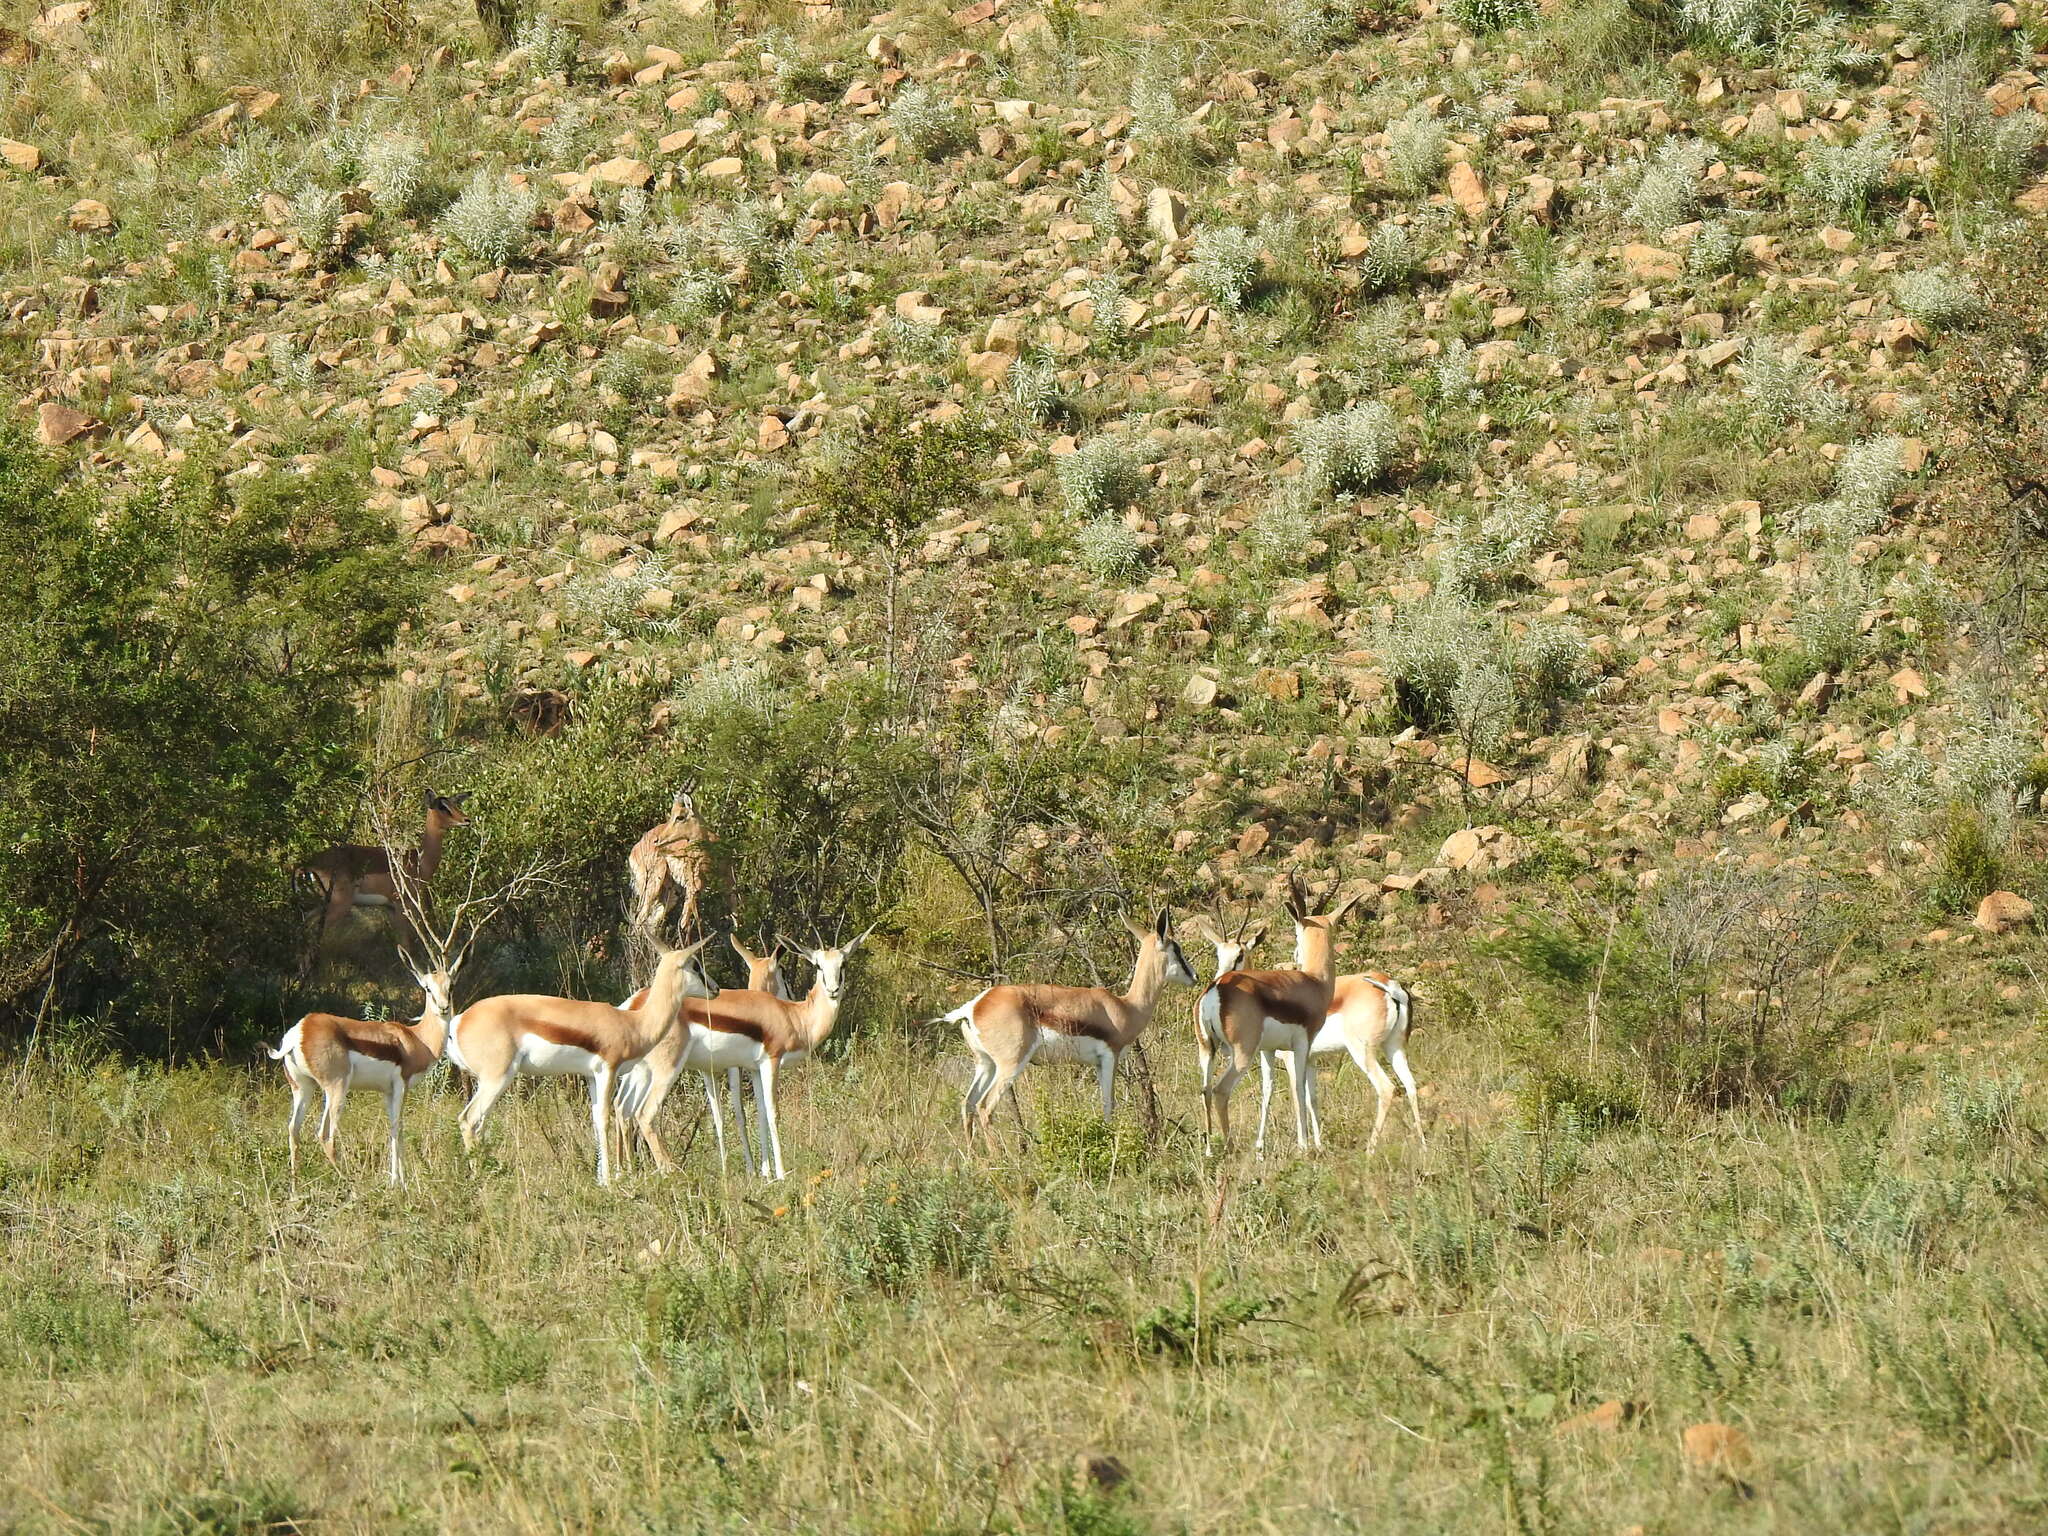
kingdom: Animalia
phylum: Chordata
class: Mammalia
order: Artiodactyla
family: Bovidae
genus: Antidorcas
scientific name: Antidorcas marsupialis
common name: Springbok
